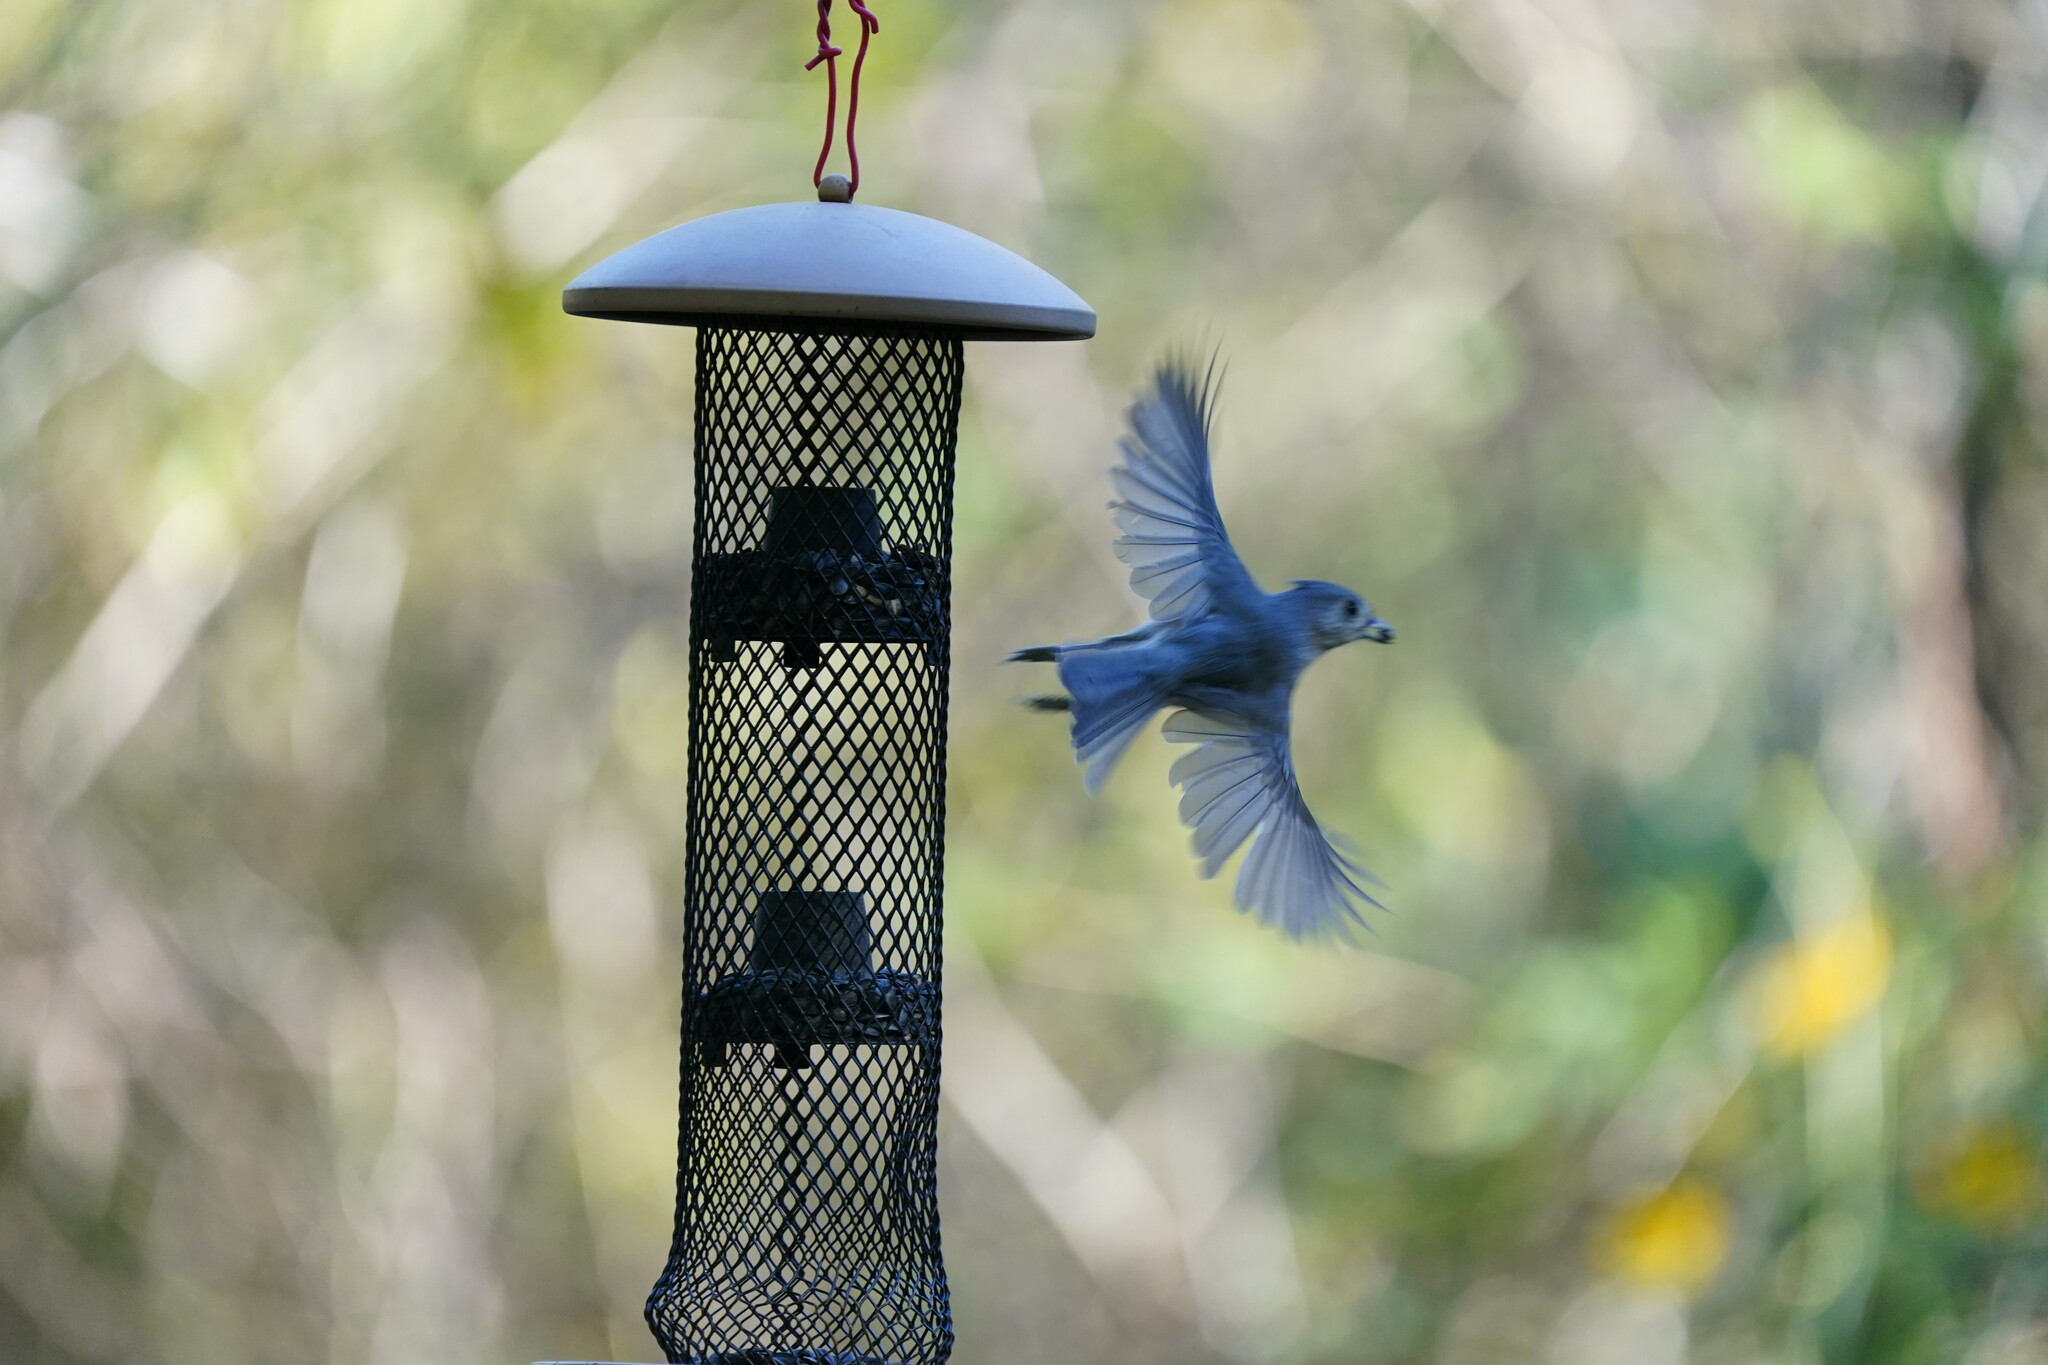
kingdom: Animalia
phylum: Chordata
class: Aves
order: Passeriformes
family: Paridae
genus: Baeolophus
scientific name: Baeolophus bicolor
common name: Tufted titmouse
